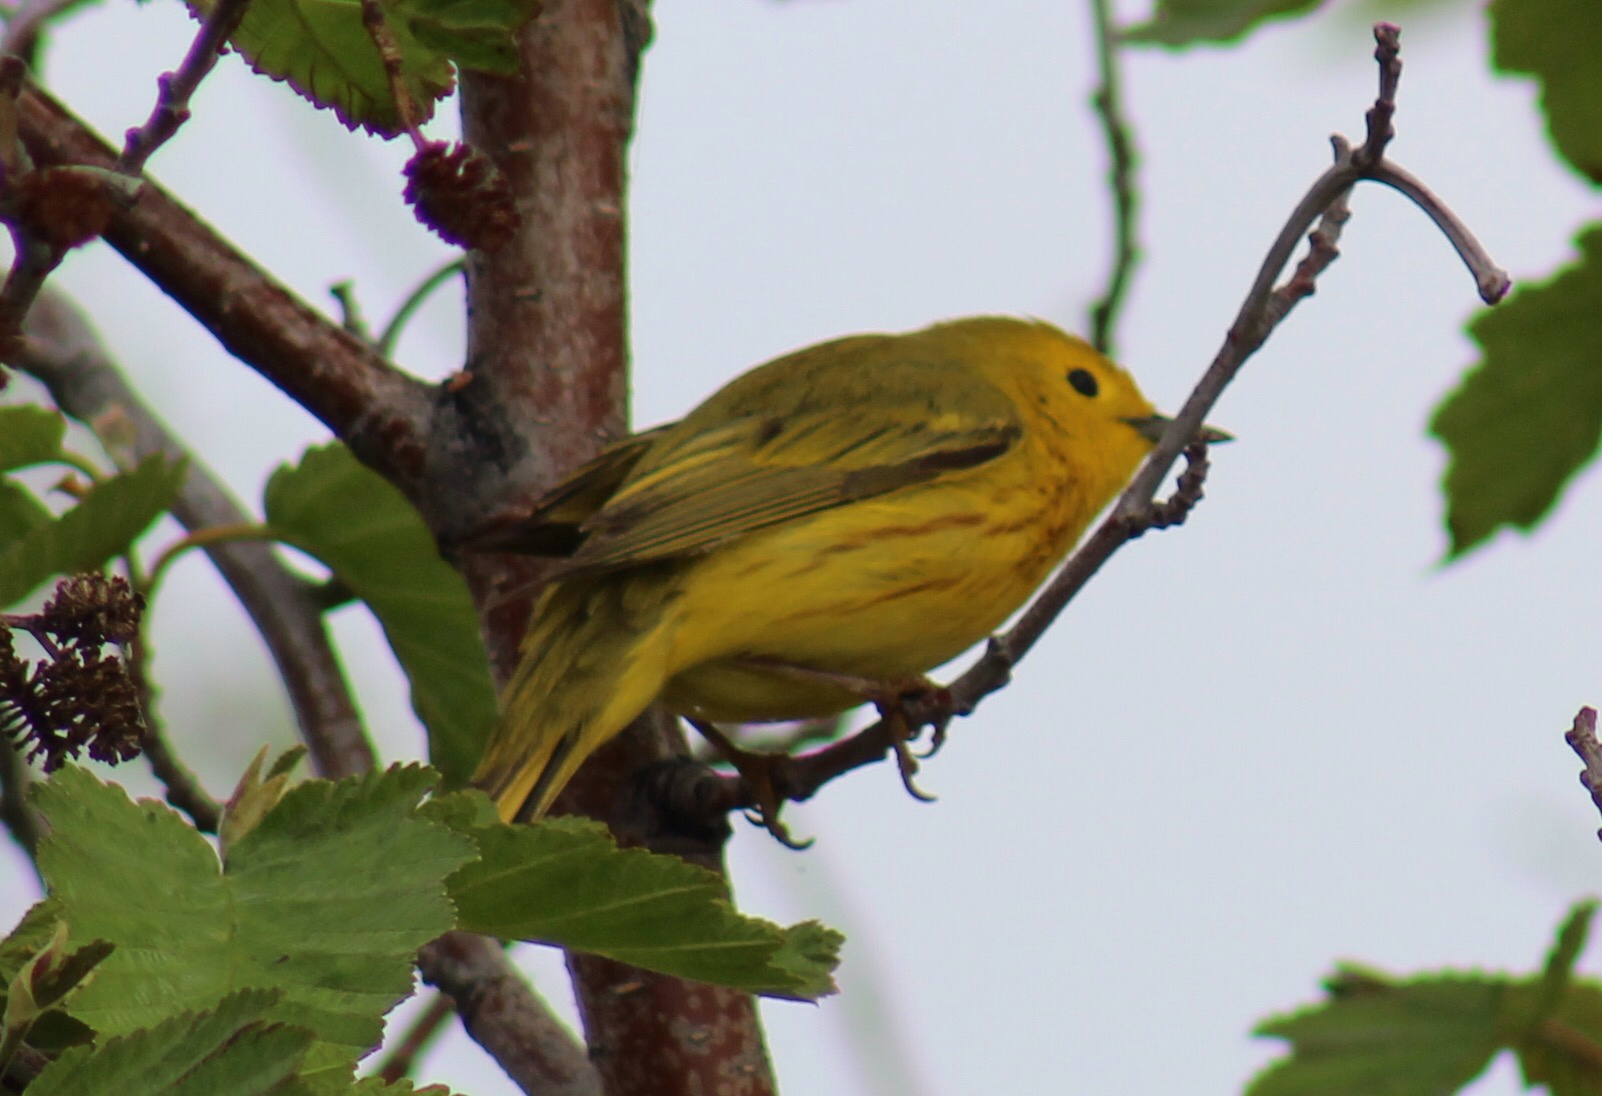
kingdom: Animalia
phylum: Chordata
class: Aves
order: Passeriformes
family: Parulidae
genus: Setophaga
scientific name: Setophaga petechia
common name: Yellow warbler
